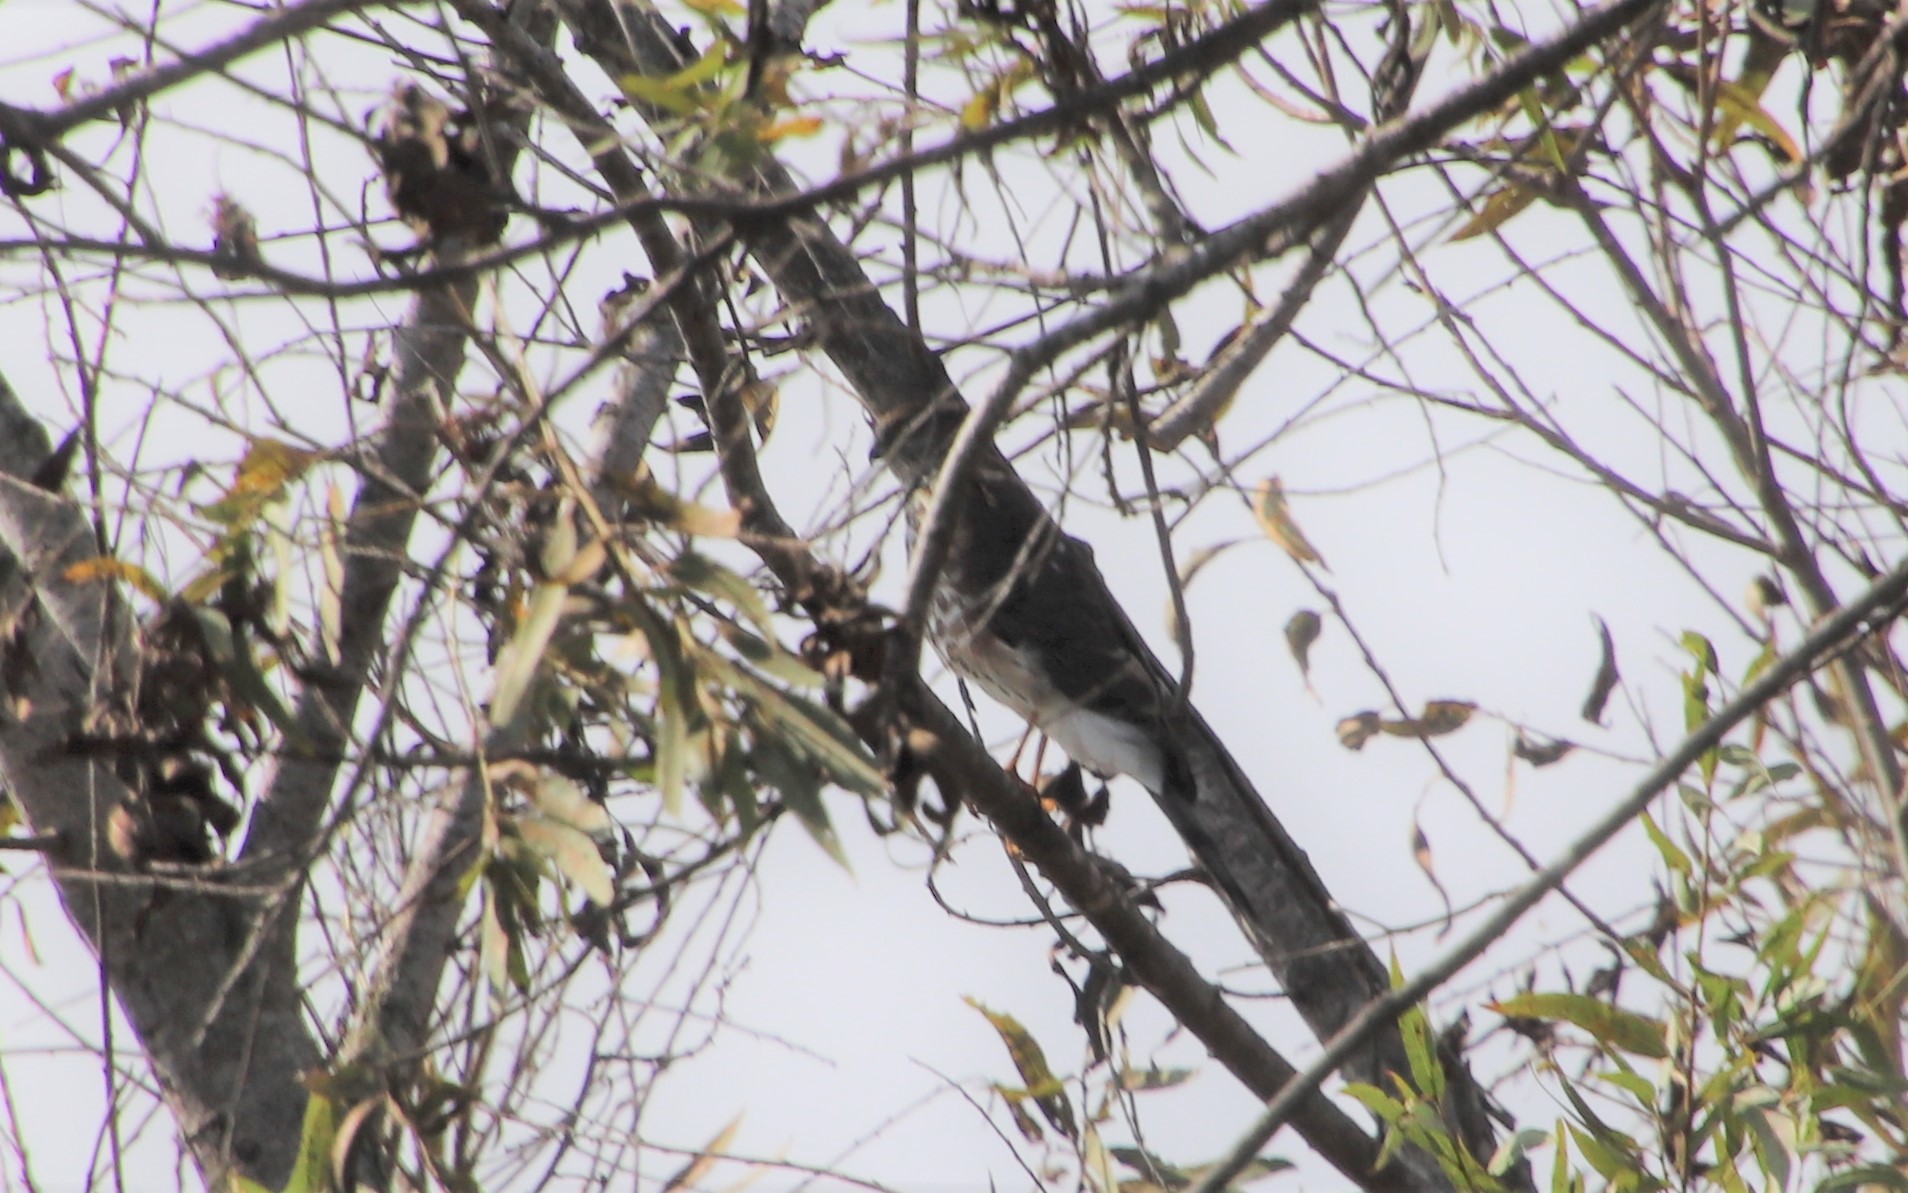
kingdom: Animalia
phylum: Chordata
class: Aves
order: Accipitriformes
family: Accipitridae
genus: Accipiter
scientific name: Accipiter striatus
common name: Sharp-shinned hawk
